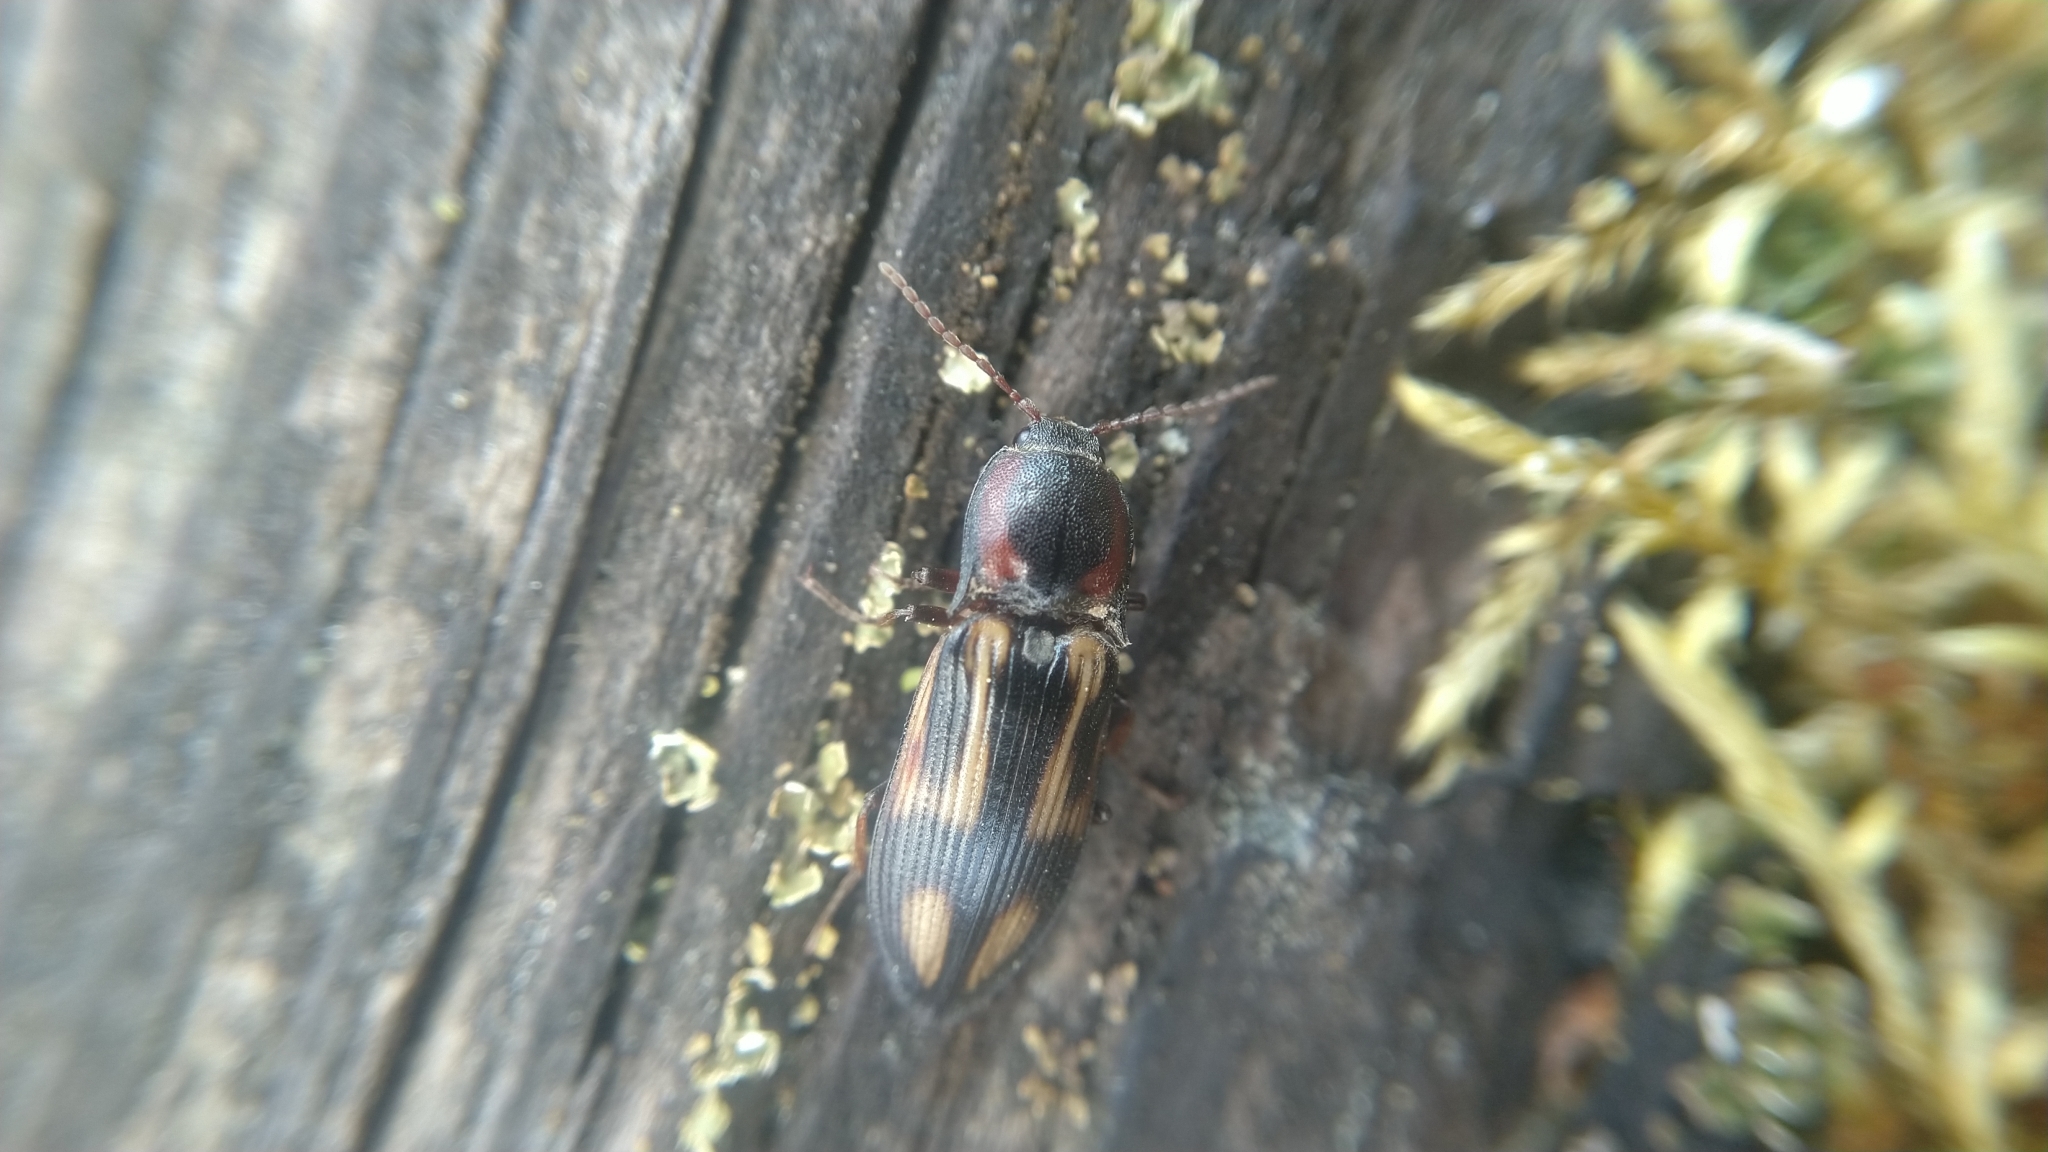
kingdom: Animalia
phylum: Arthropoda
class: Insecta
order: Coleoptera
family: Elateridae
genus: Selatosomus
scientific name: Selatosomus cruciatus
